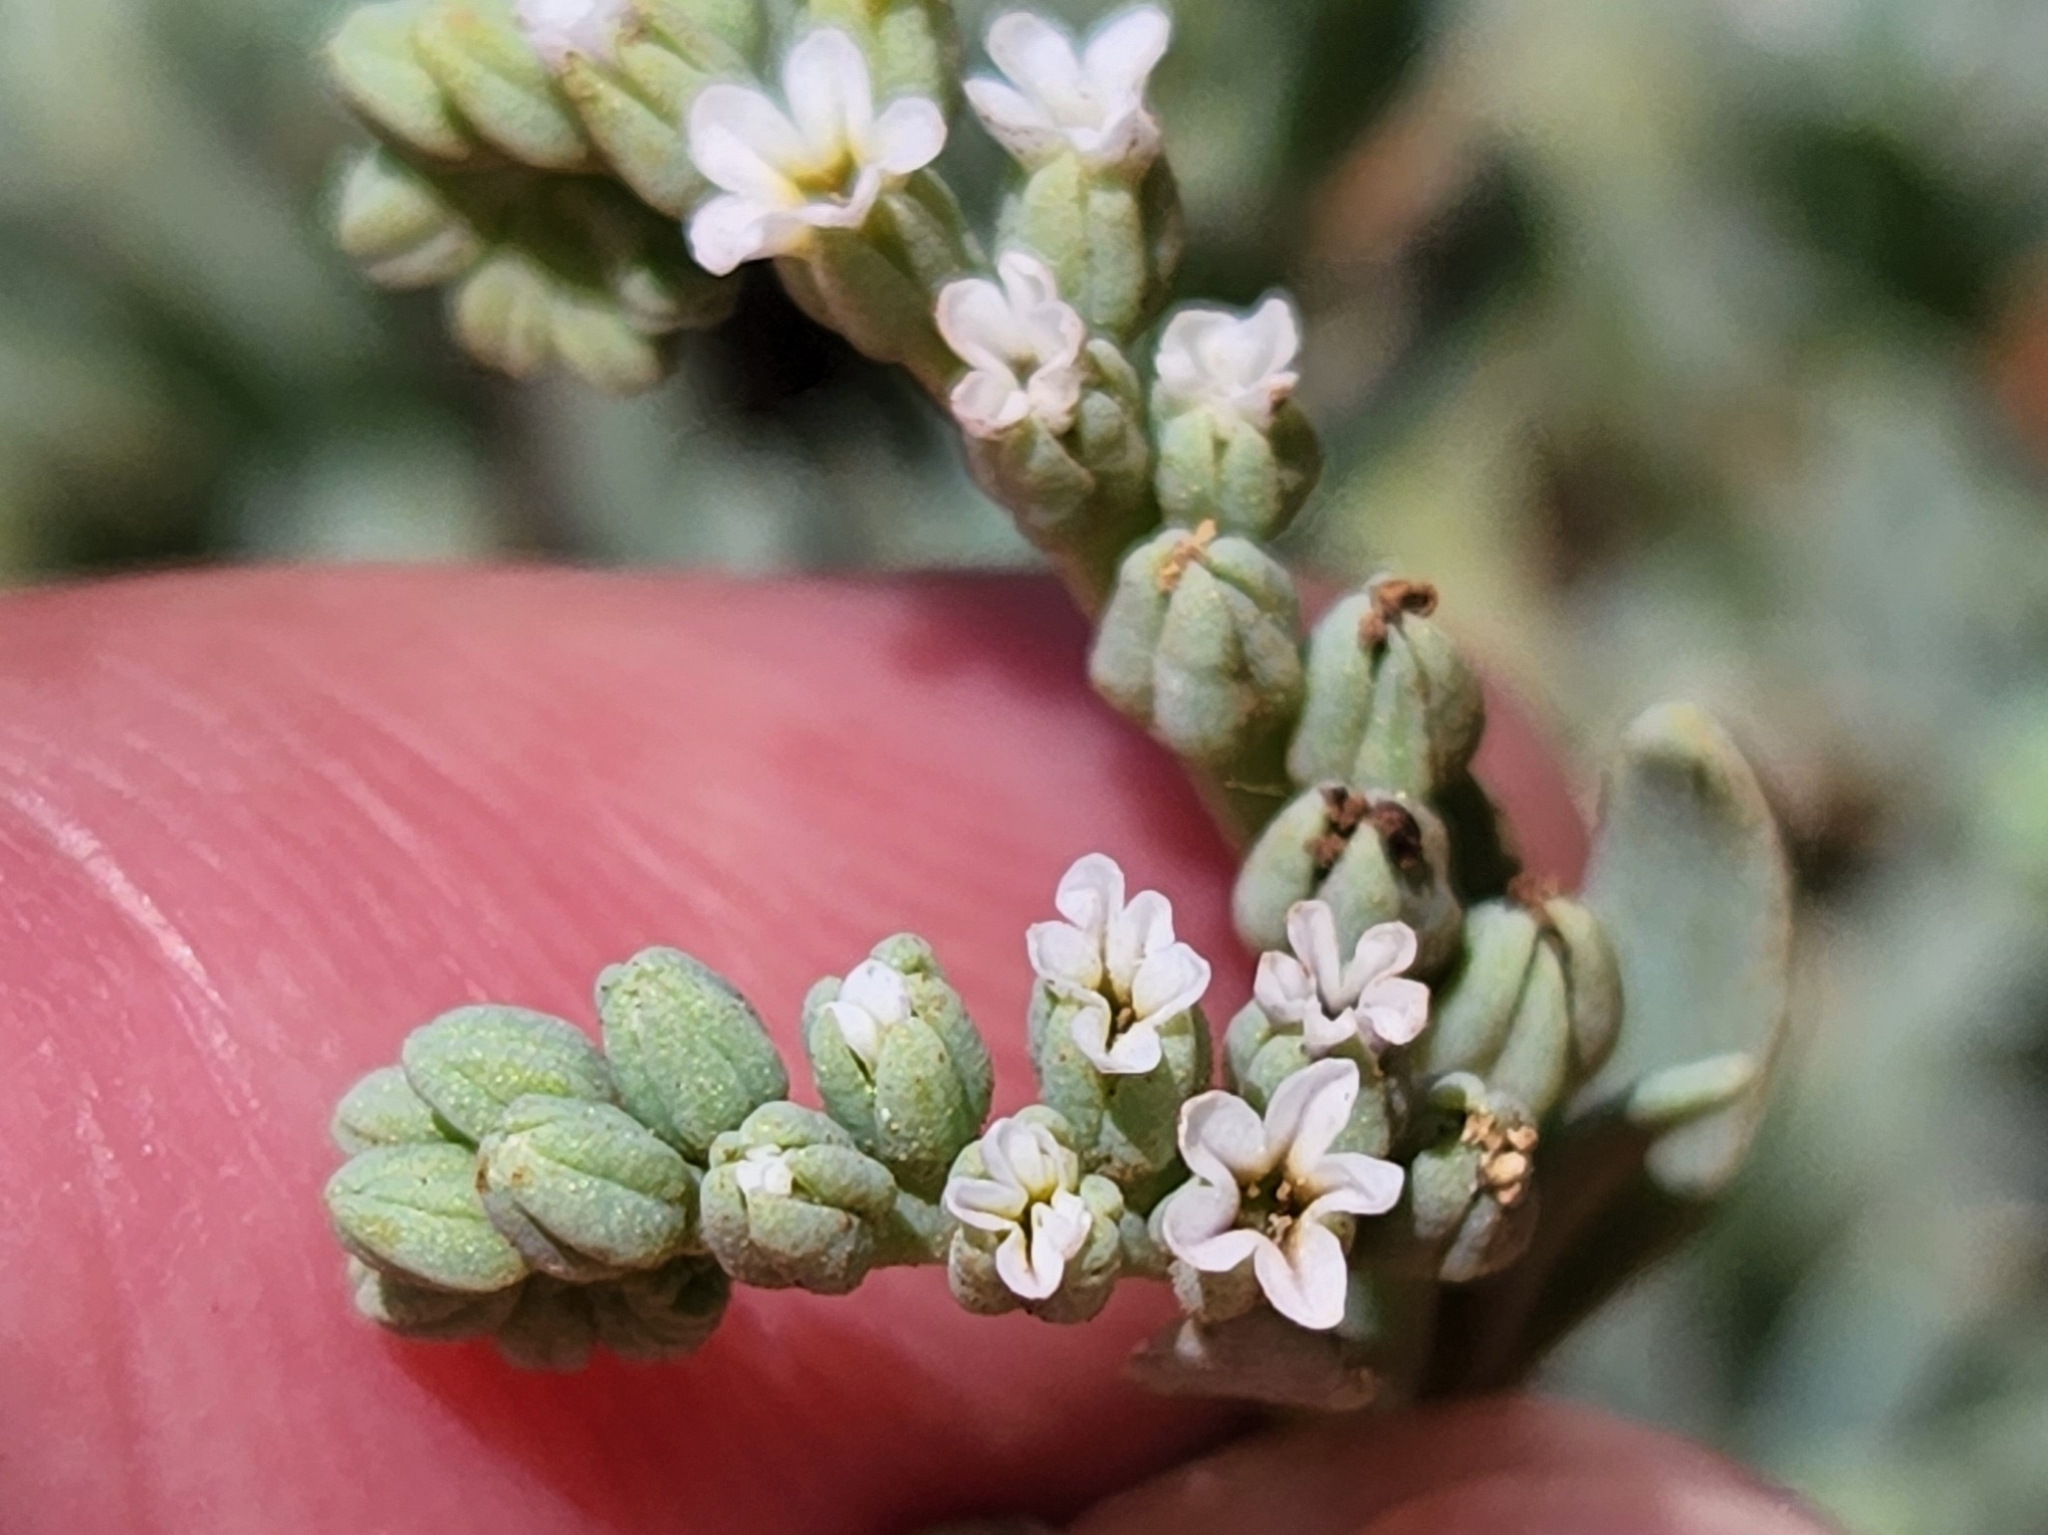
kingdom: Plantae
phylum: Tracheophyta
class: Magnoliopsida
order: Boraginales
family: Heliotropiaceae
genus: Heliotropium
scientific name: Heliotropium curassavicum
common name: Seaside heliotrope
